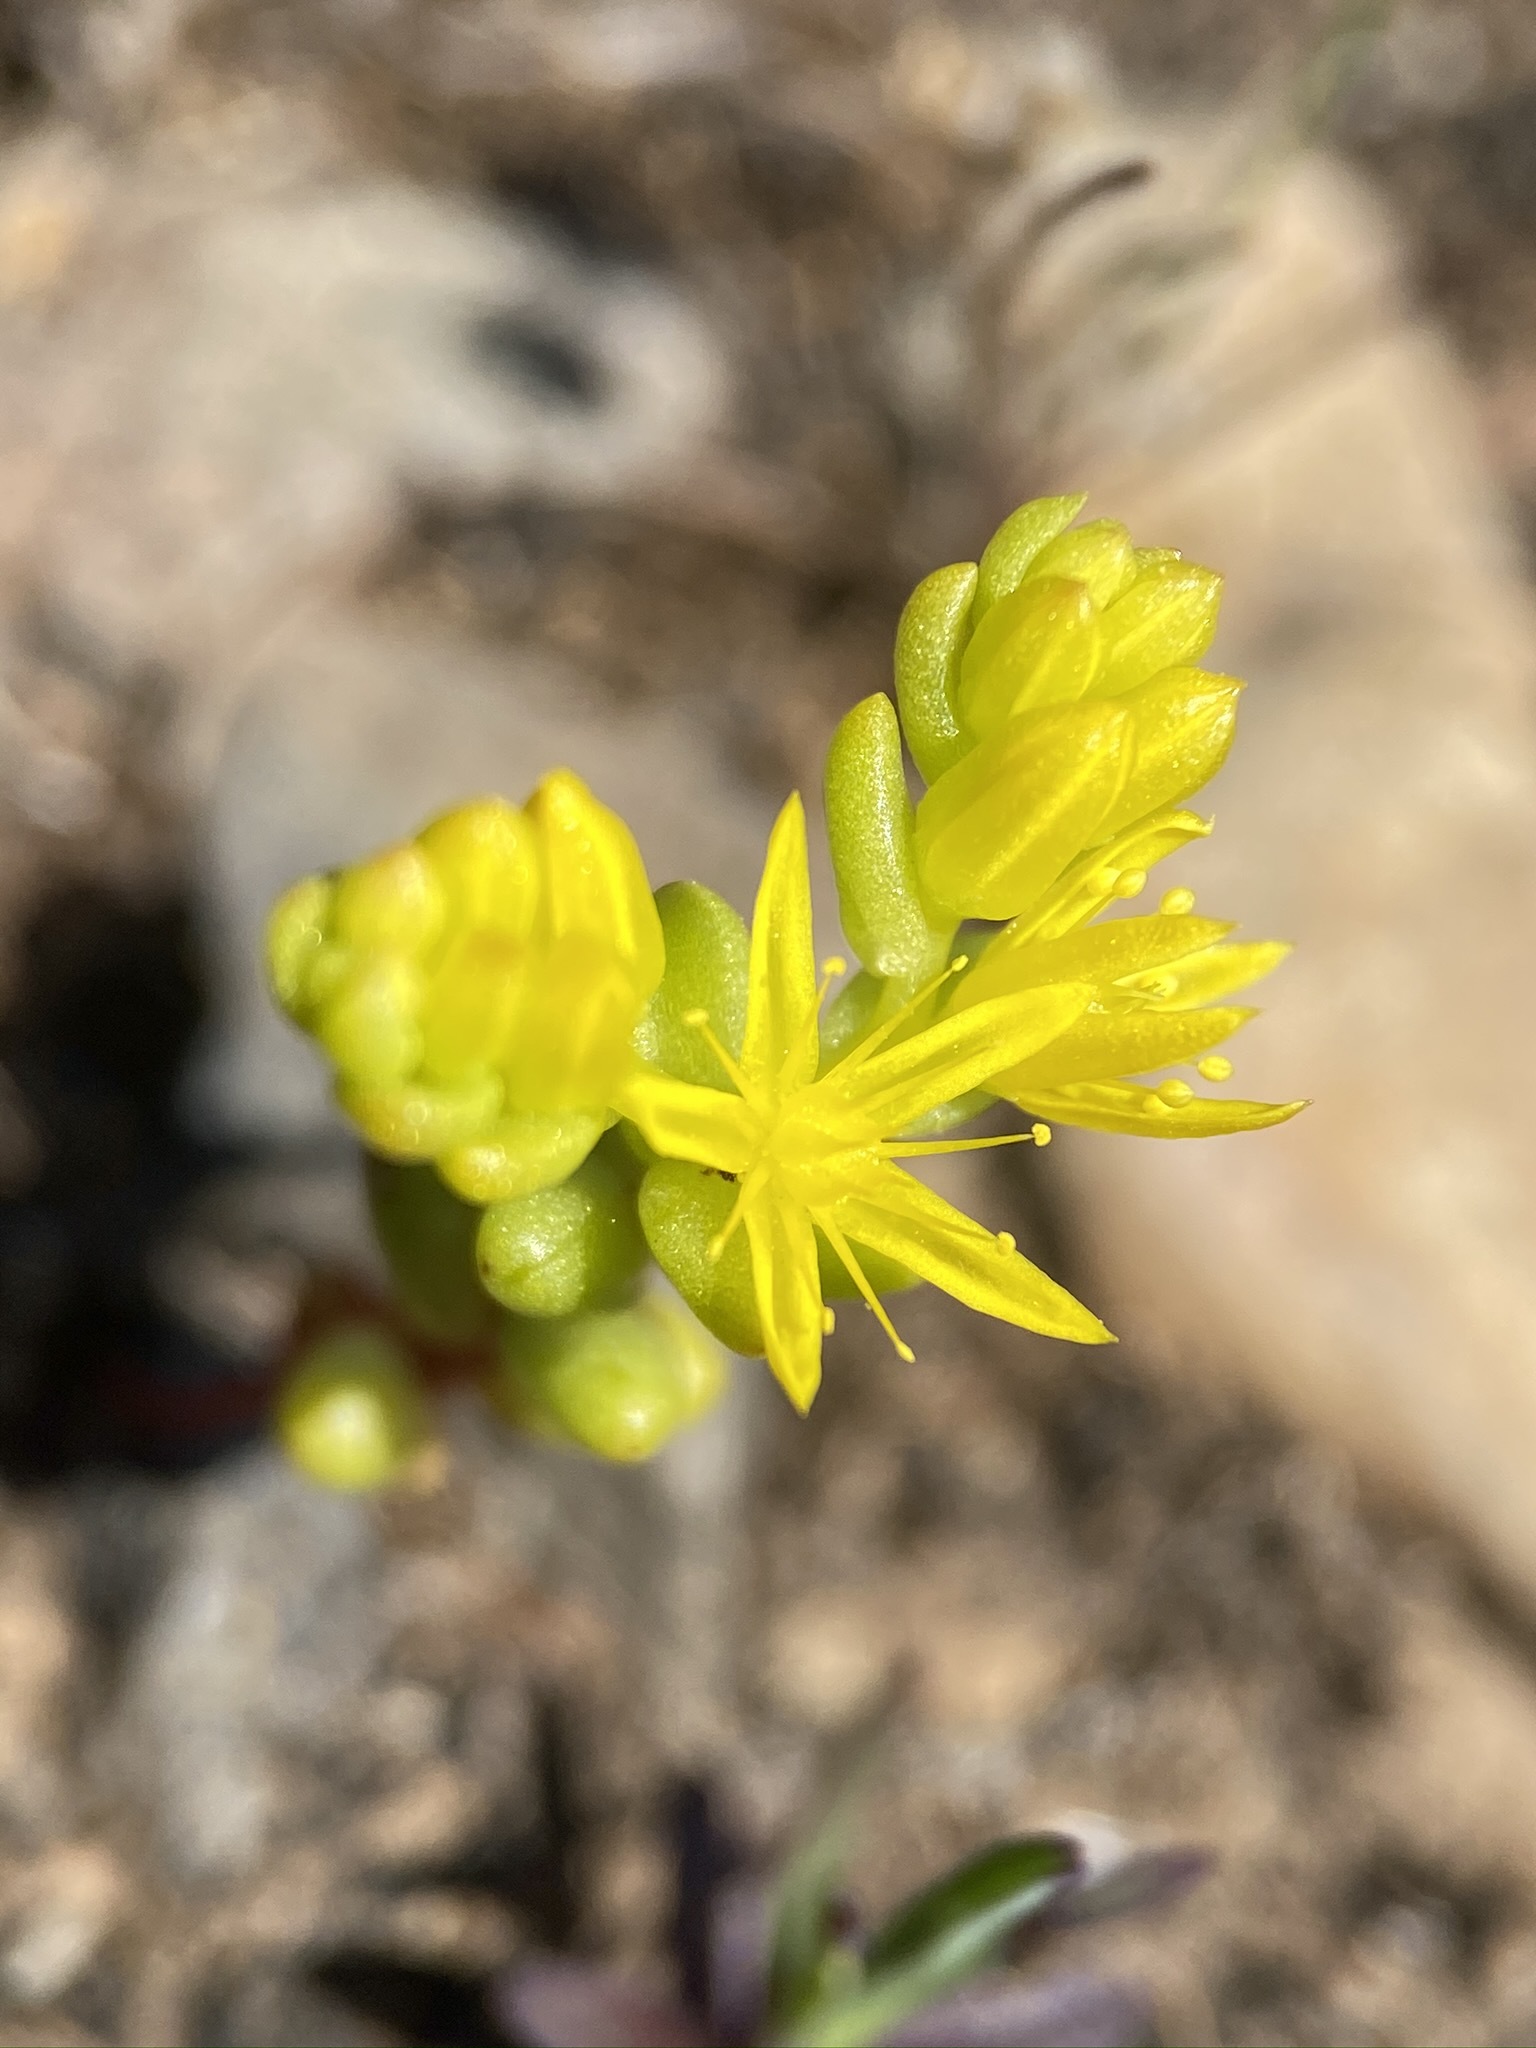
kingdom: Plantae
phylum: Tracheophyta
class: Magnoliopsida
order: Saxifragales
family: Crassulaceae
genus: Sedella
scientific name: Sedella pumila
